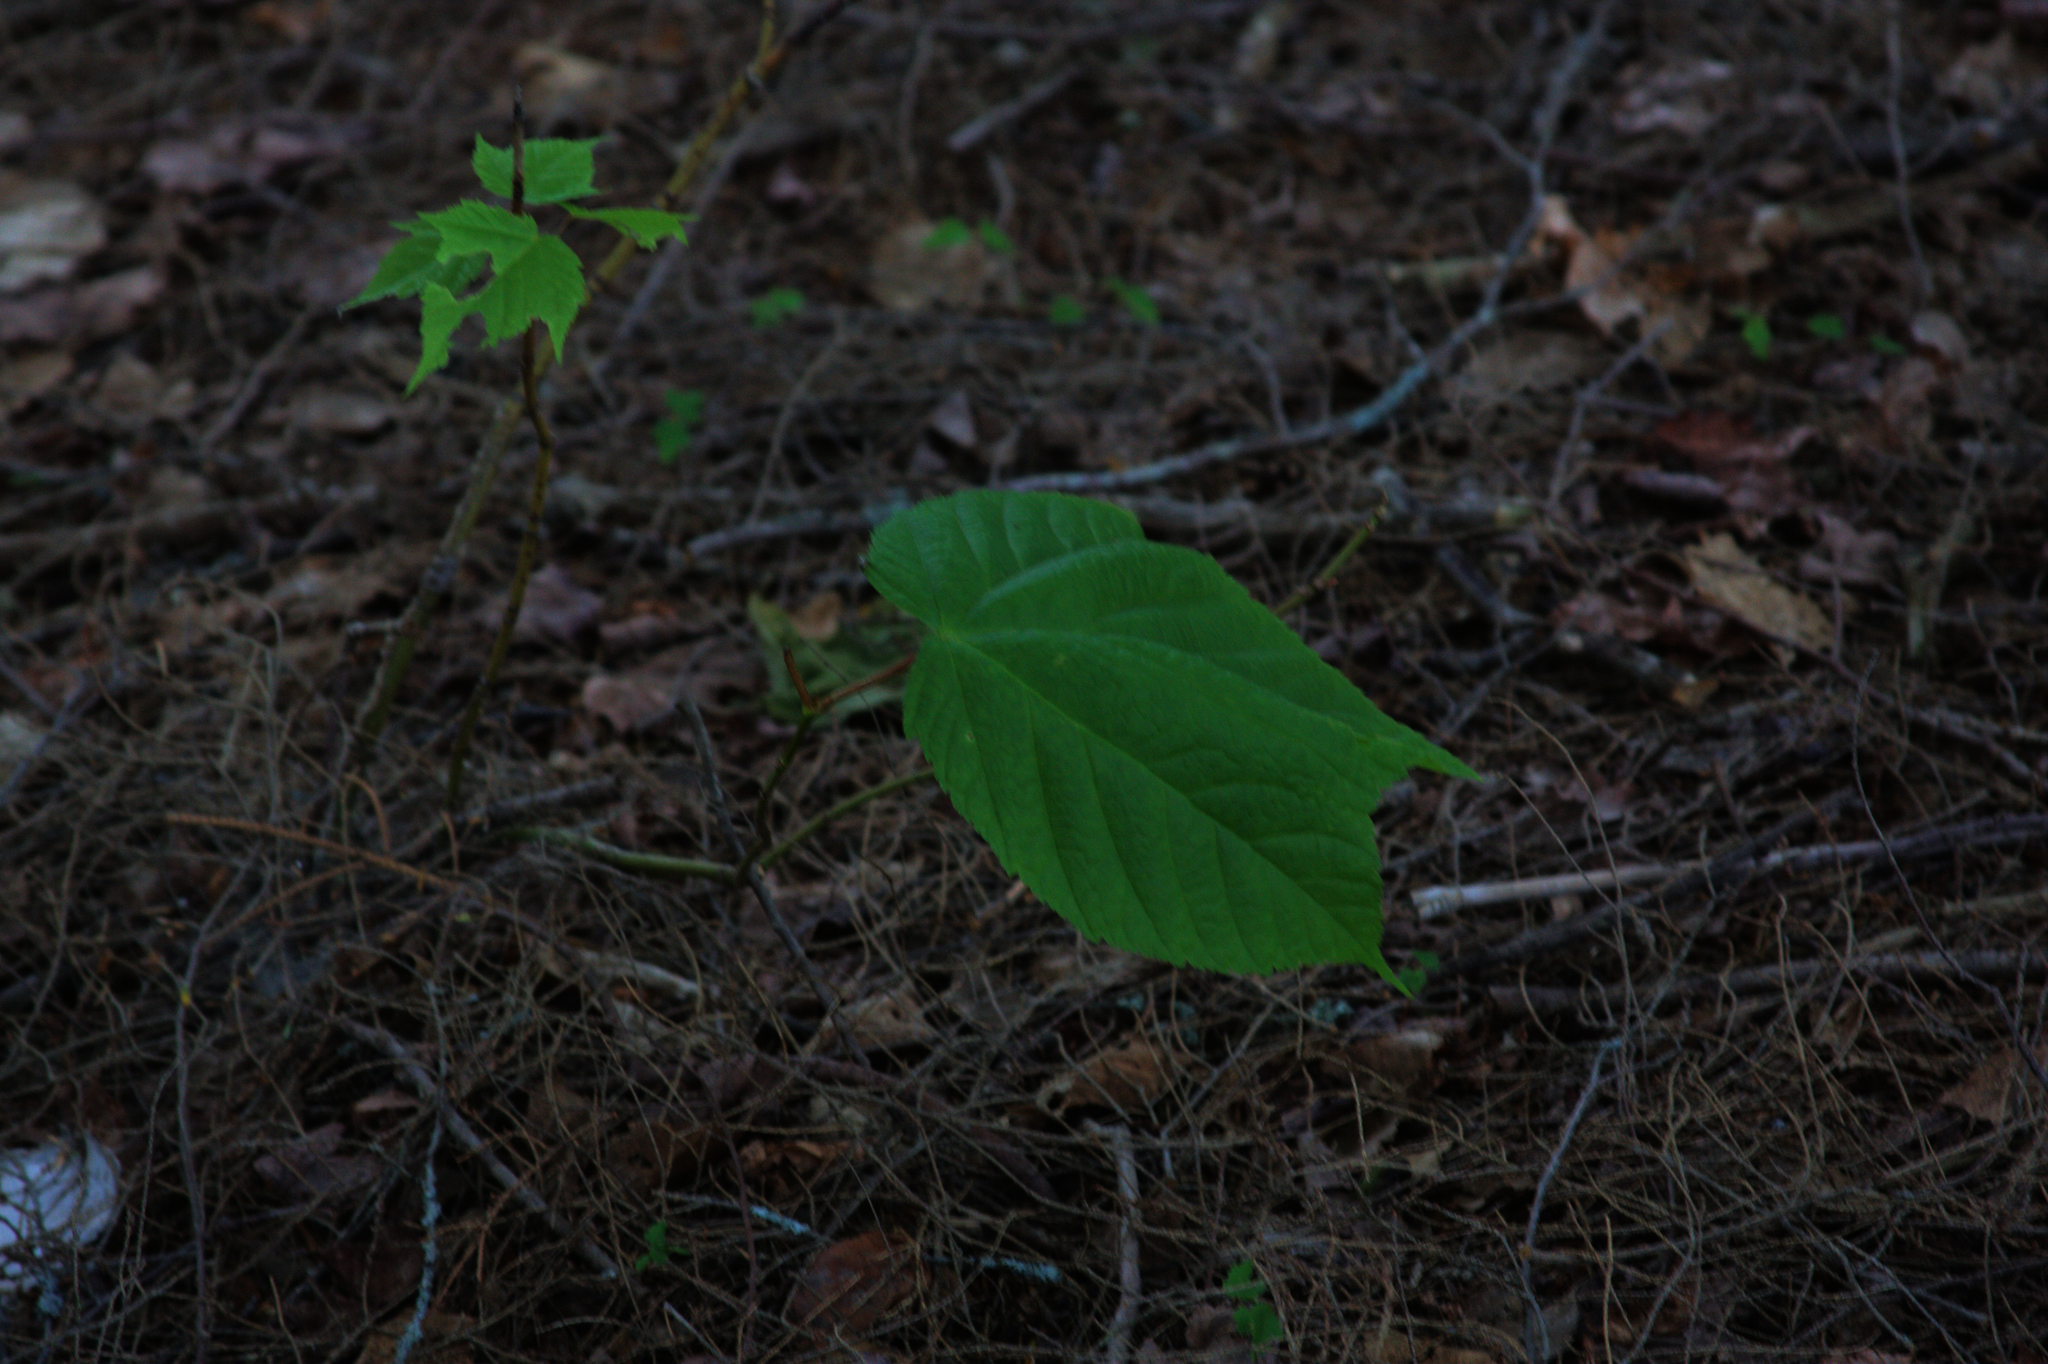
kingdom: Plantae
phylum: Tracheophyta
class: Magnoliopsida
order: Sapindales
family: Sapindaceae
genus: Acer
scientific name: Acer pensylvanicum
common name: Moosewood
